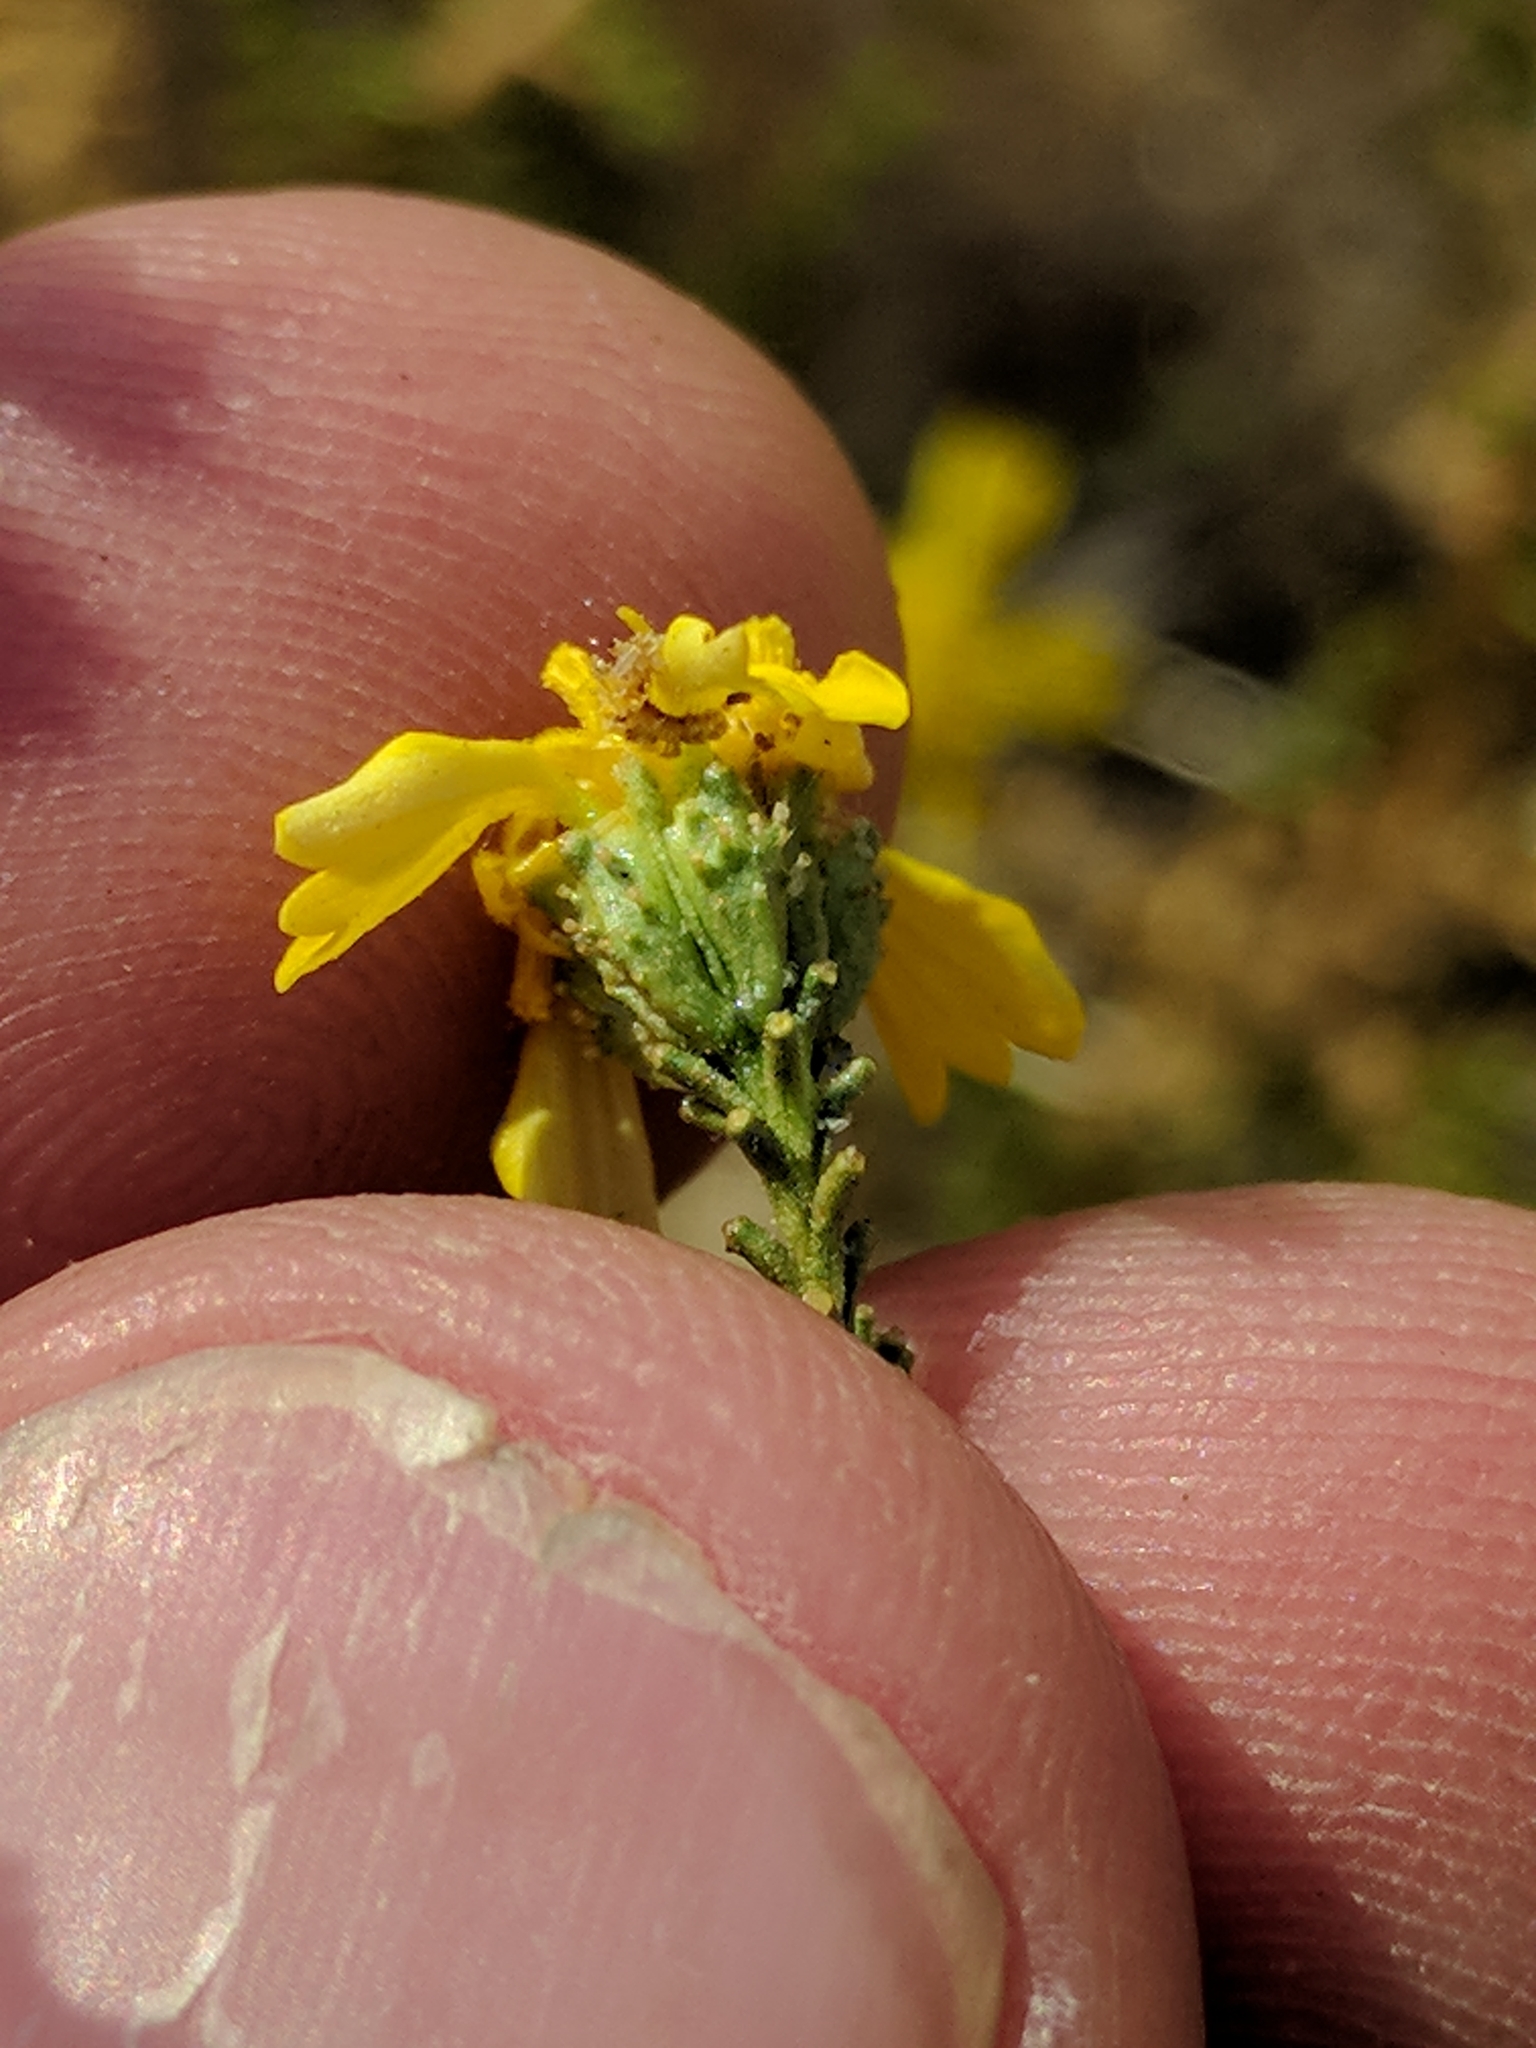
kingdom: Plantae
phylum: Tracheophyta
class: Magnoliopsida
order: Asterales
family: Asteraceae
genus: Holocarpha
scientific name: Holocarpha obconica
